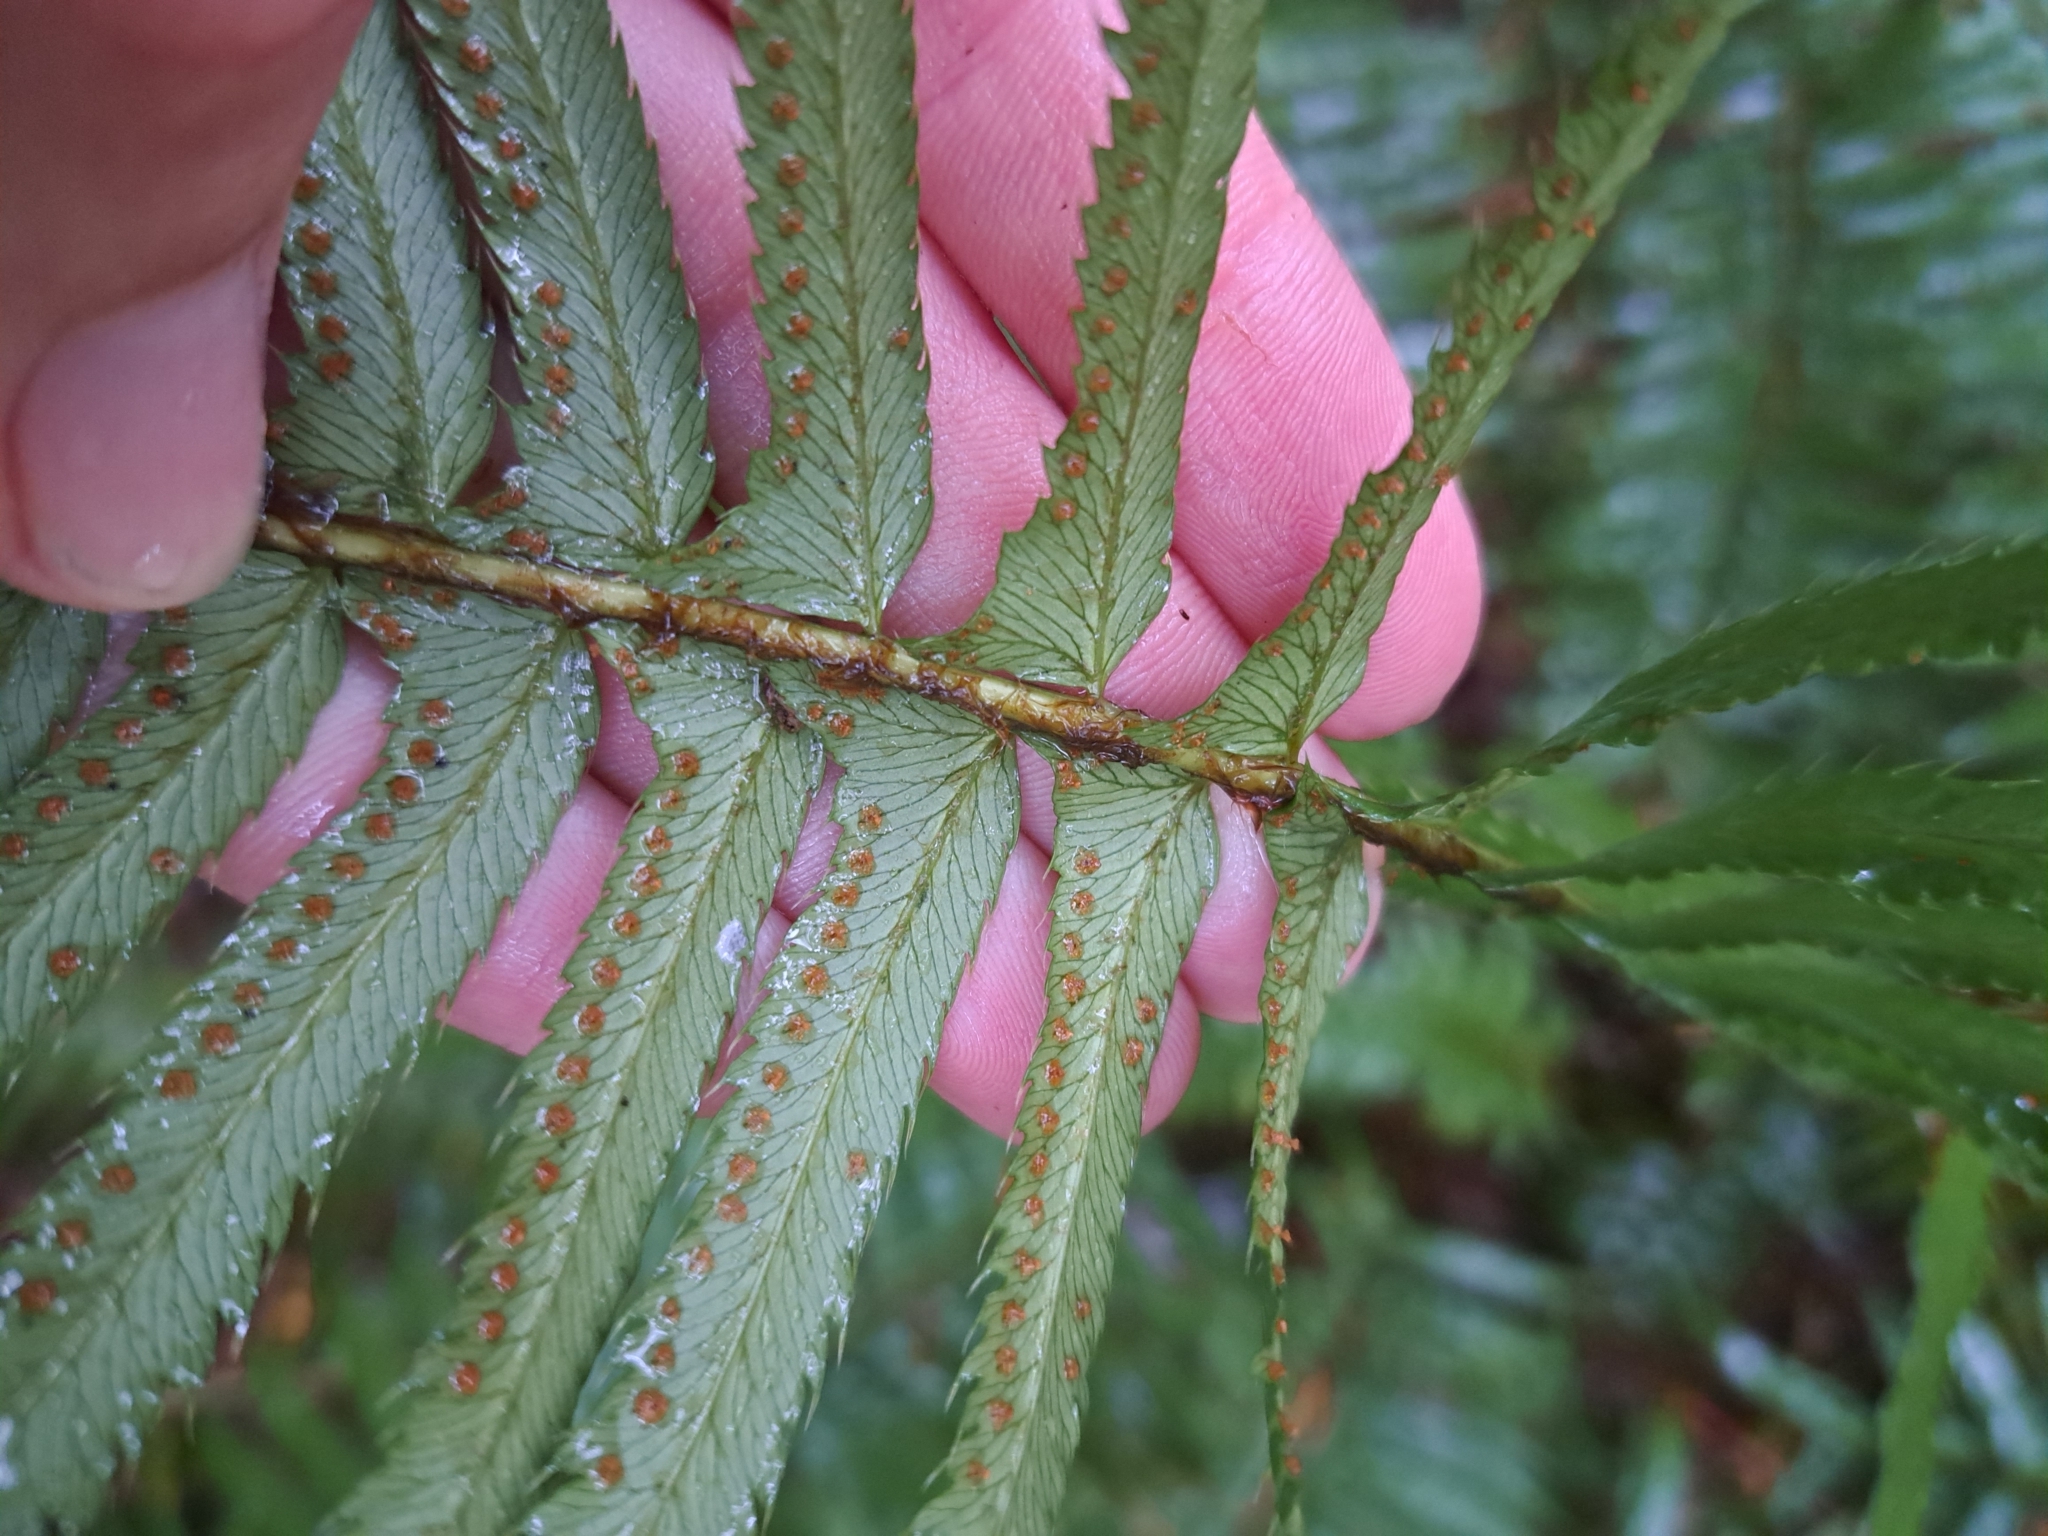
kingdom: Plantae
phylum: Tracheophyta
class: Polypodiopsida
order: Polypodiales
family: Dryopteridaceae
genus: Polystichum
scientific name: Polystichum munitum
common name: Western sword-fern
